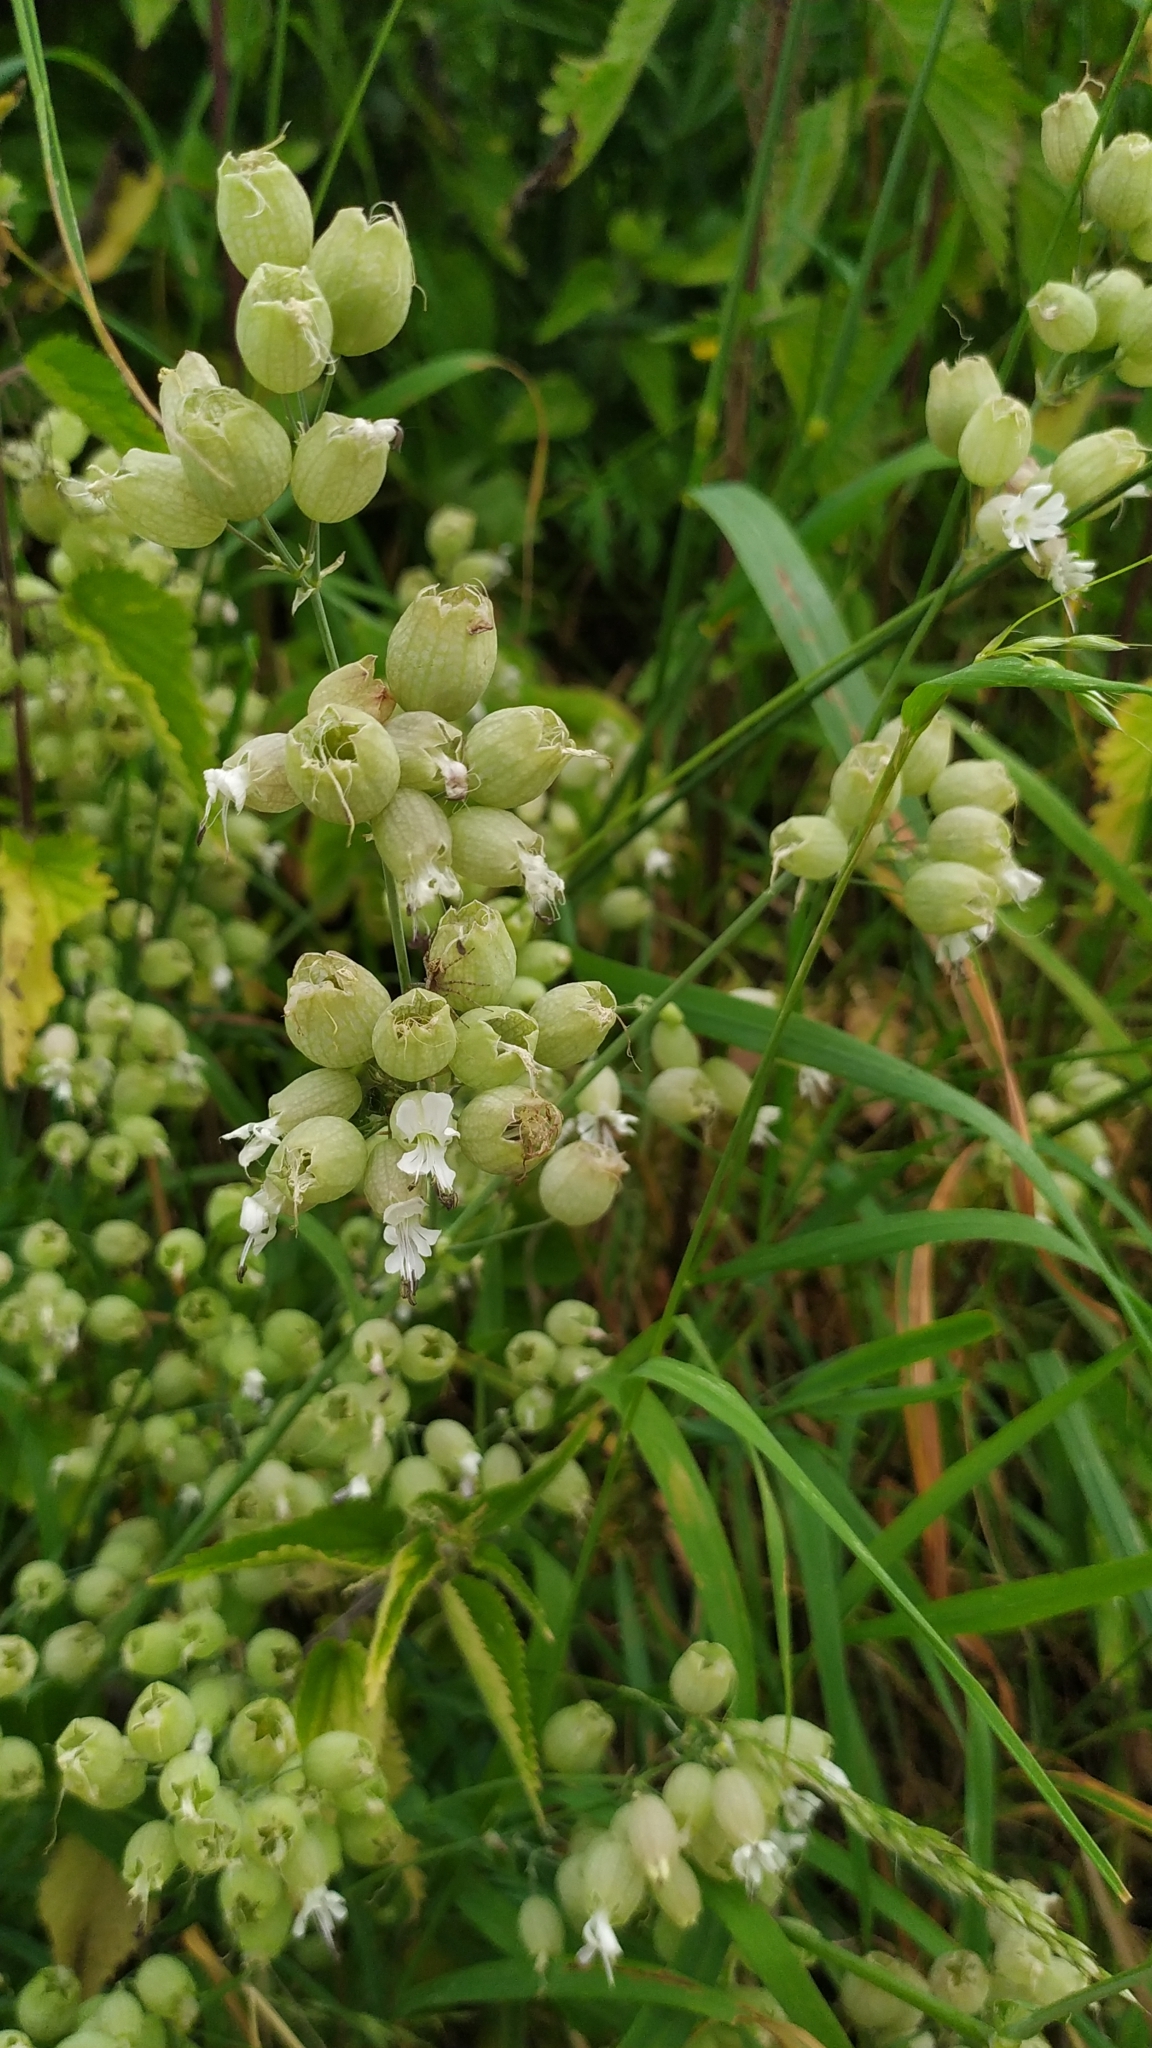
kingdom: Plantae
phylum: Tracheophyta
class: Magnoliopsida
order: Caryophyllales
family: Caryophyllaceae
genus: Silene
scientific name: Silene vulgaris
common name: Bladder campion
